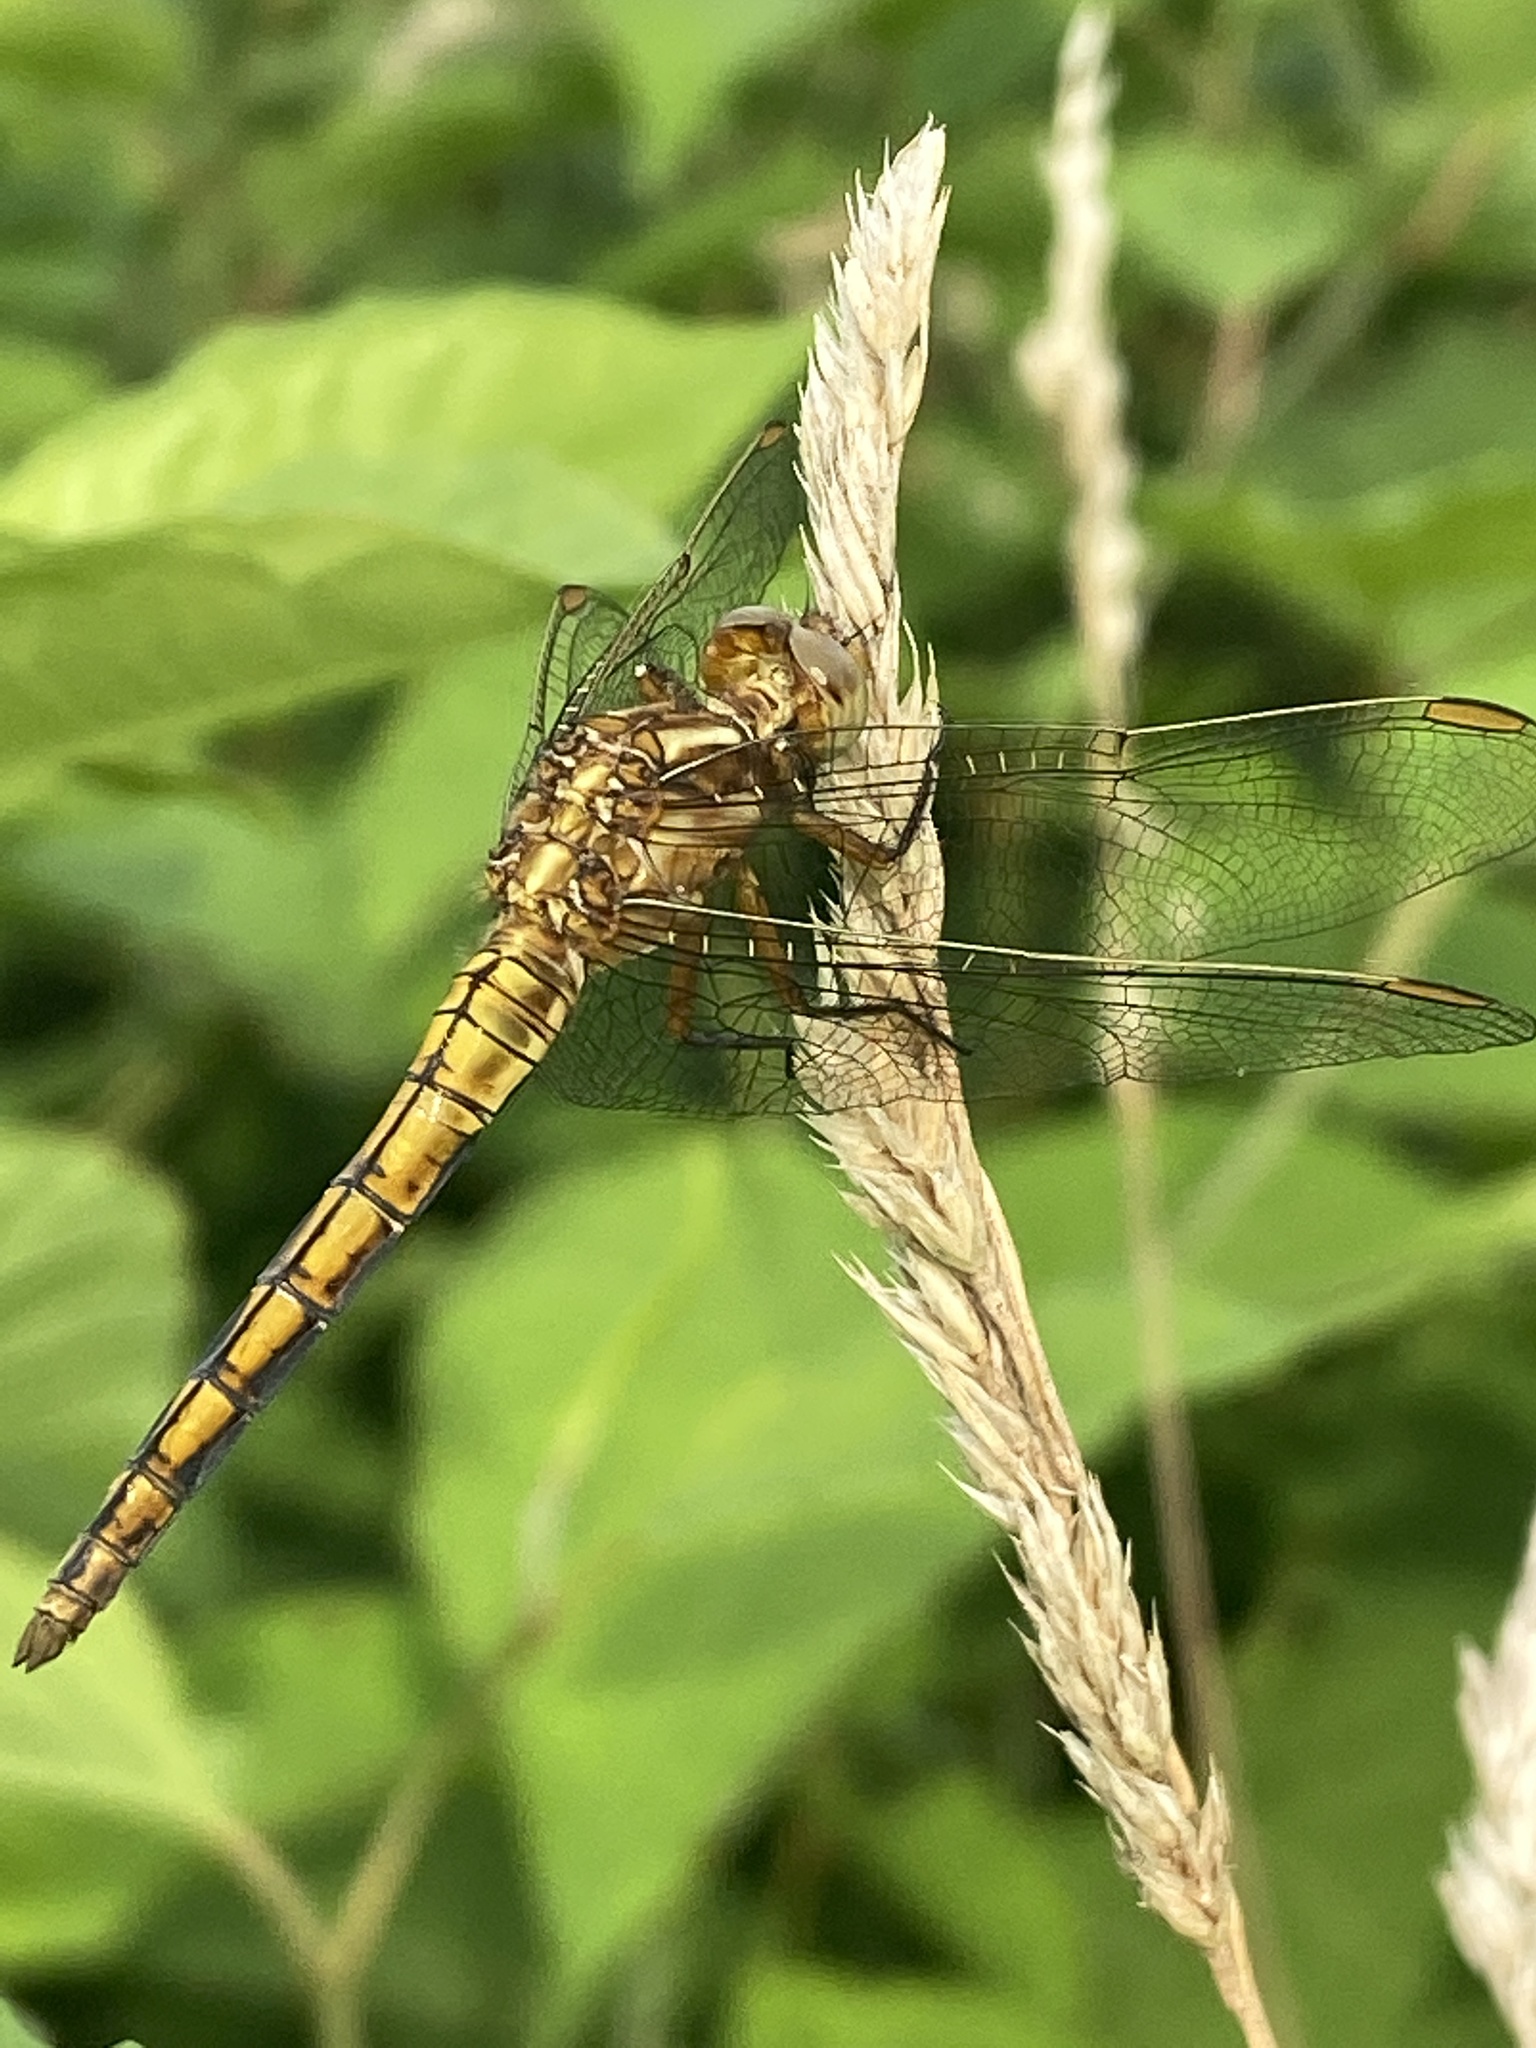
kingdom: Animalia
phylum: Arthropoda
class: Insecta
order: Odonata
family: Libellulidae
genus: Orthetrum
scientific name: Orthetrum coerulescens
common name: Keeled skimmer
